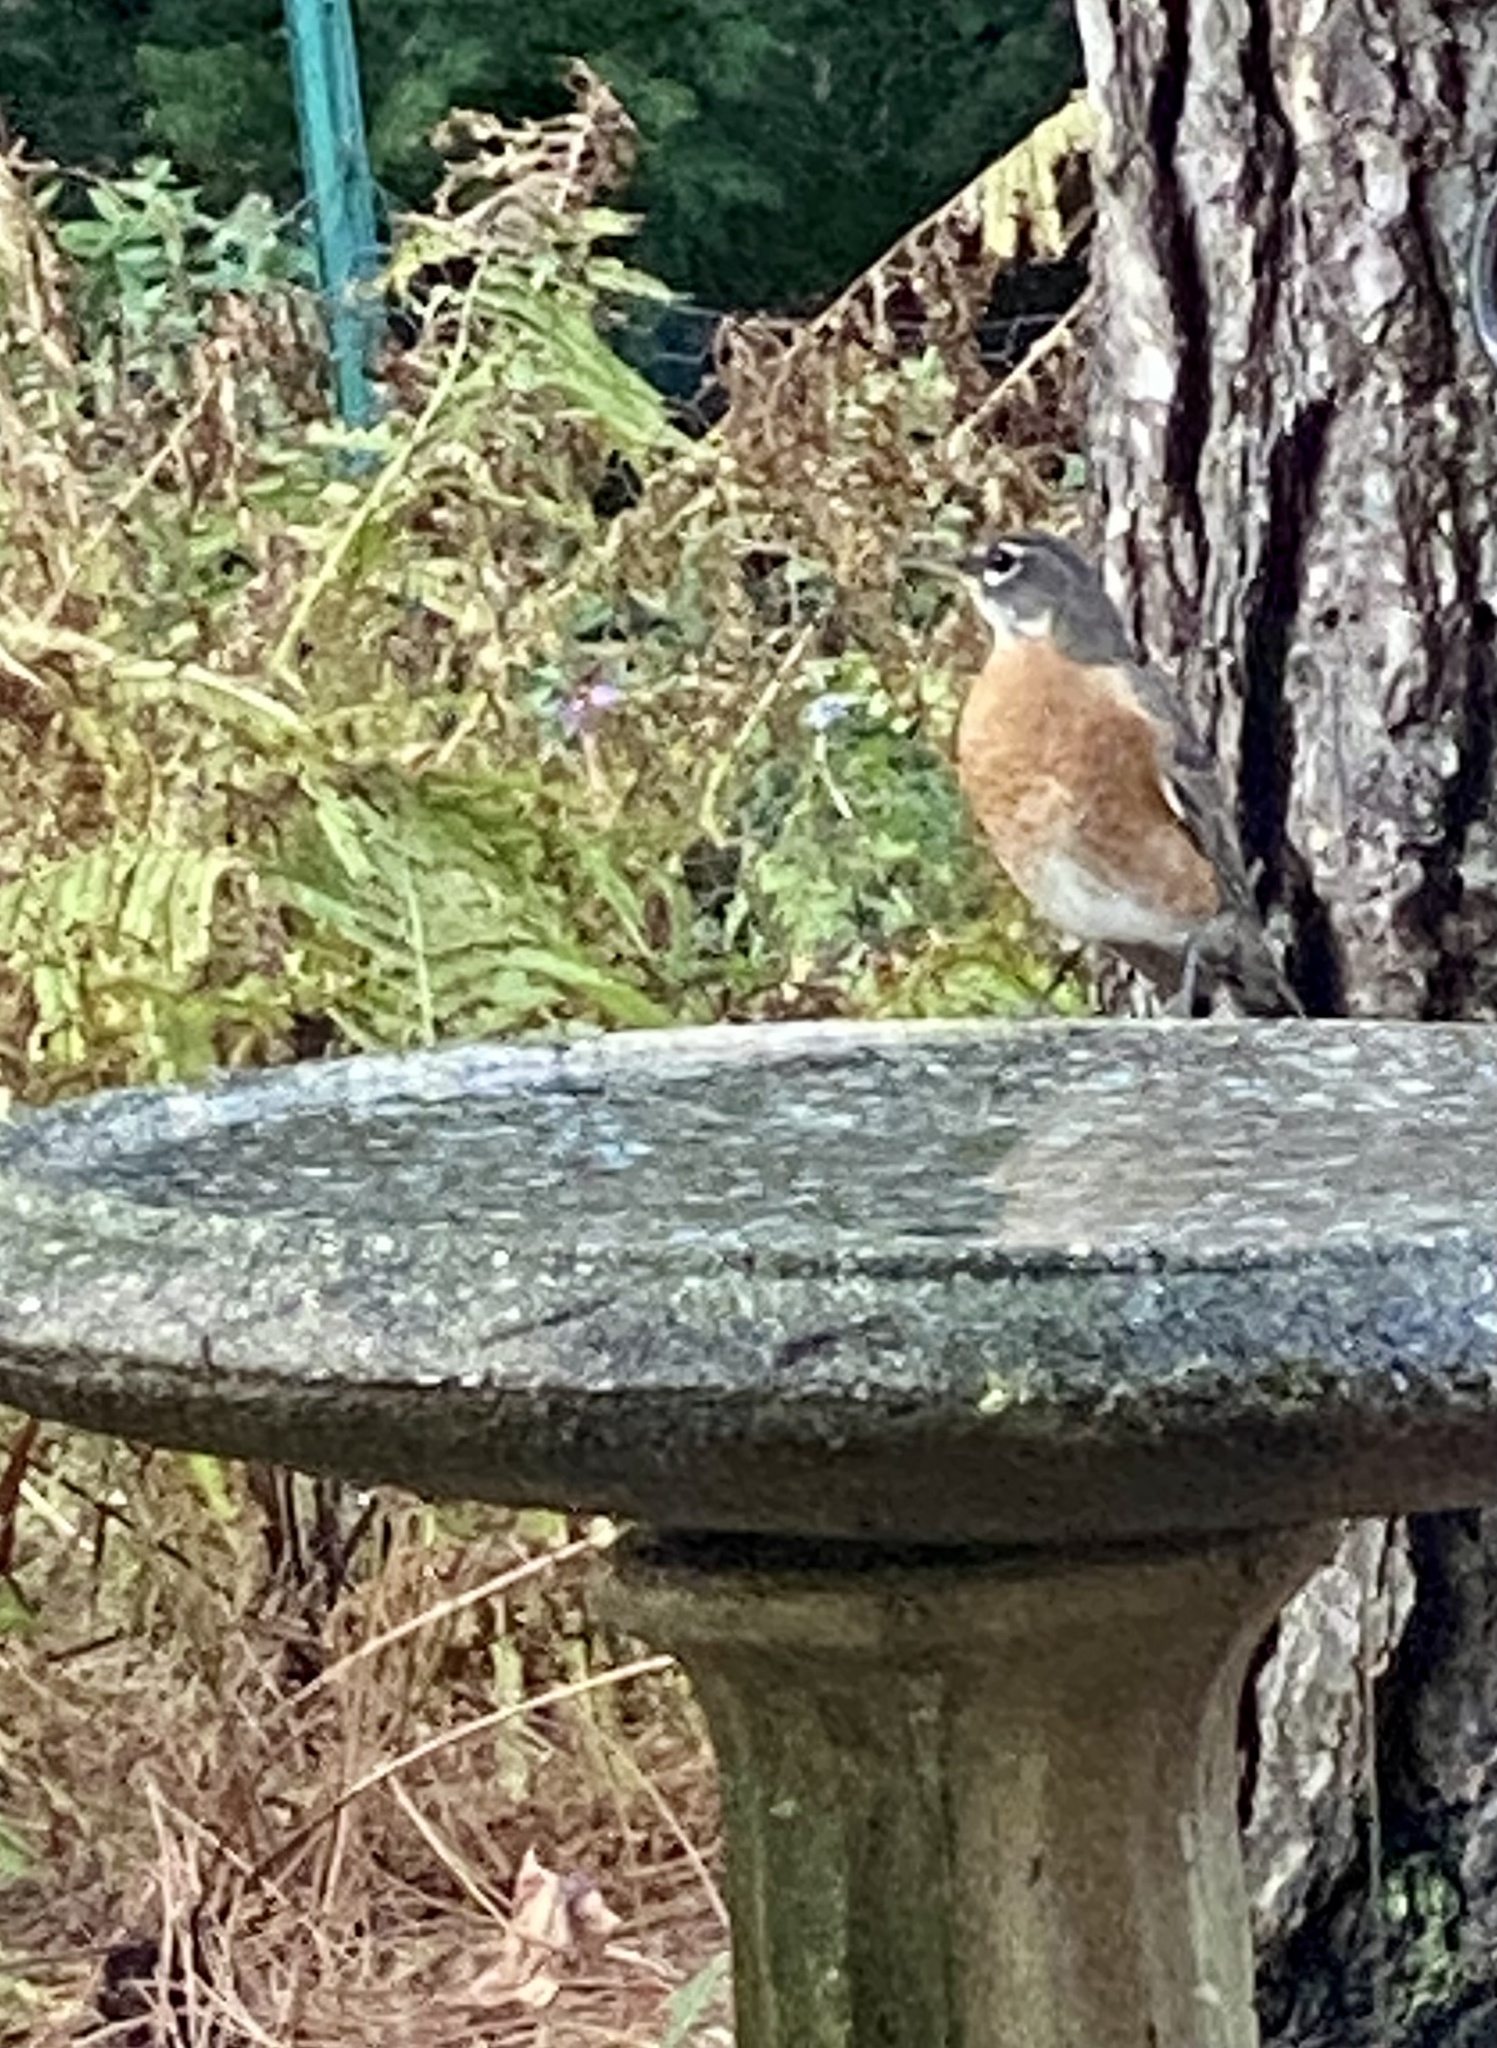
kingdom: Animalia
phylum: Chordata
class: Aves
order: Passeriformes
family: Turdidae
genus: Turdus
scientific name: Turdus migratorius
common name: American robin
